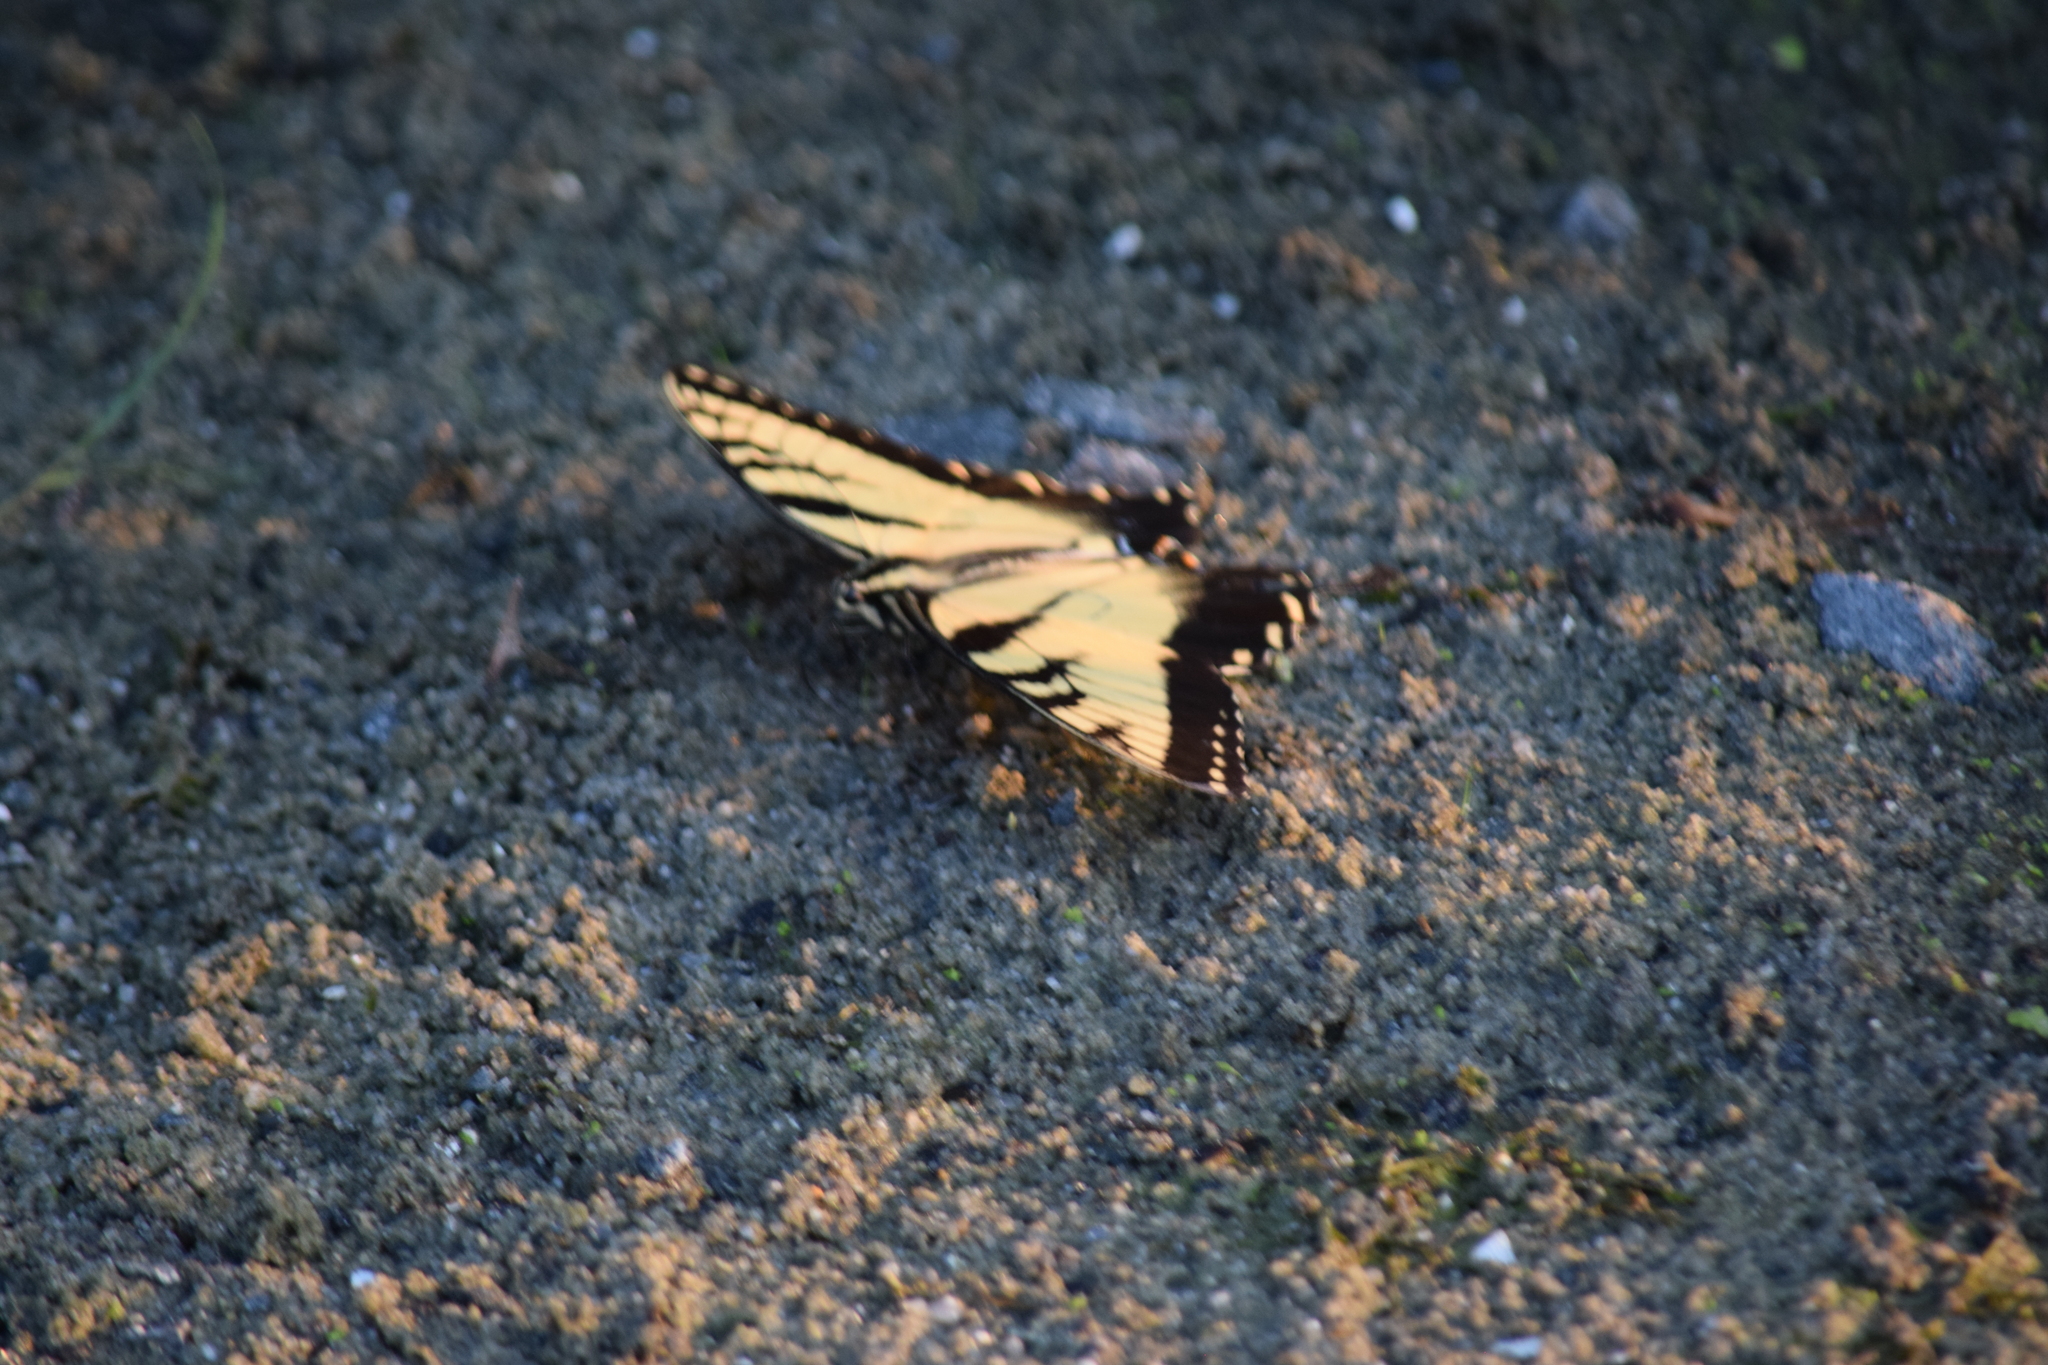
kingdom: Animalia
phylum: Arthropoda
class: Insecta
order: Lepidoptera
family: Papilionidae
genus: Papilio
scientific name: Papilio glaucus
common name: Tiger swallowtail
